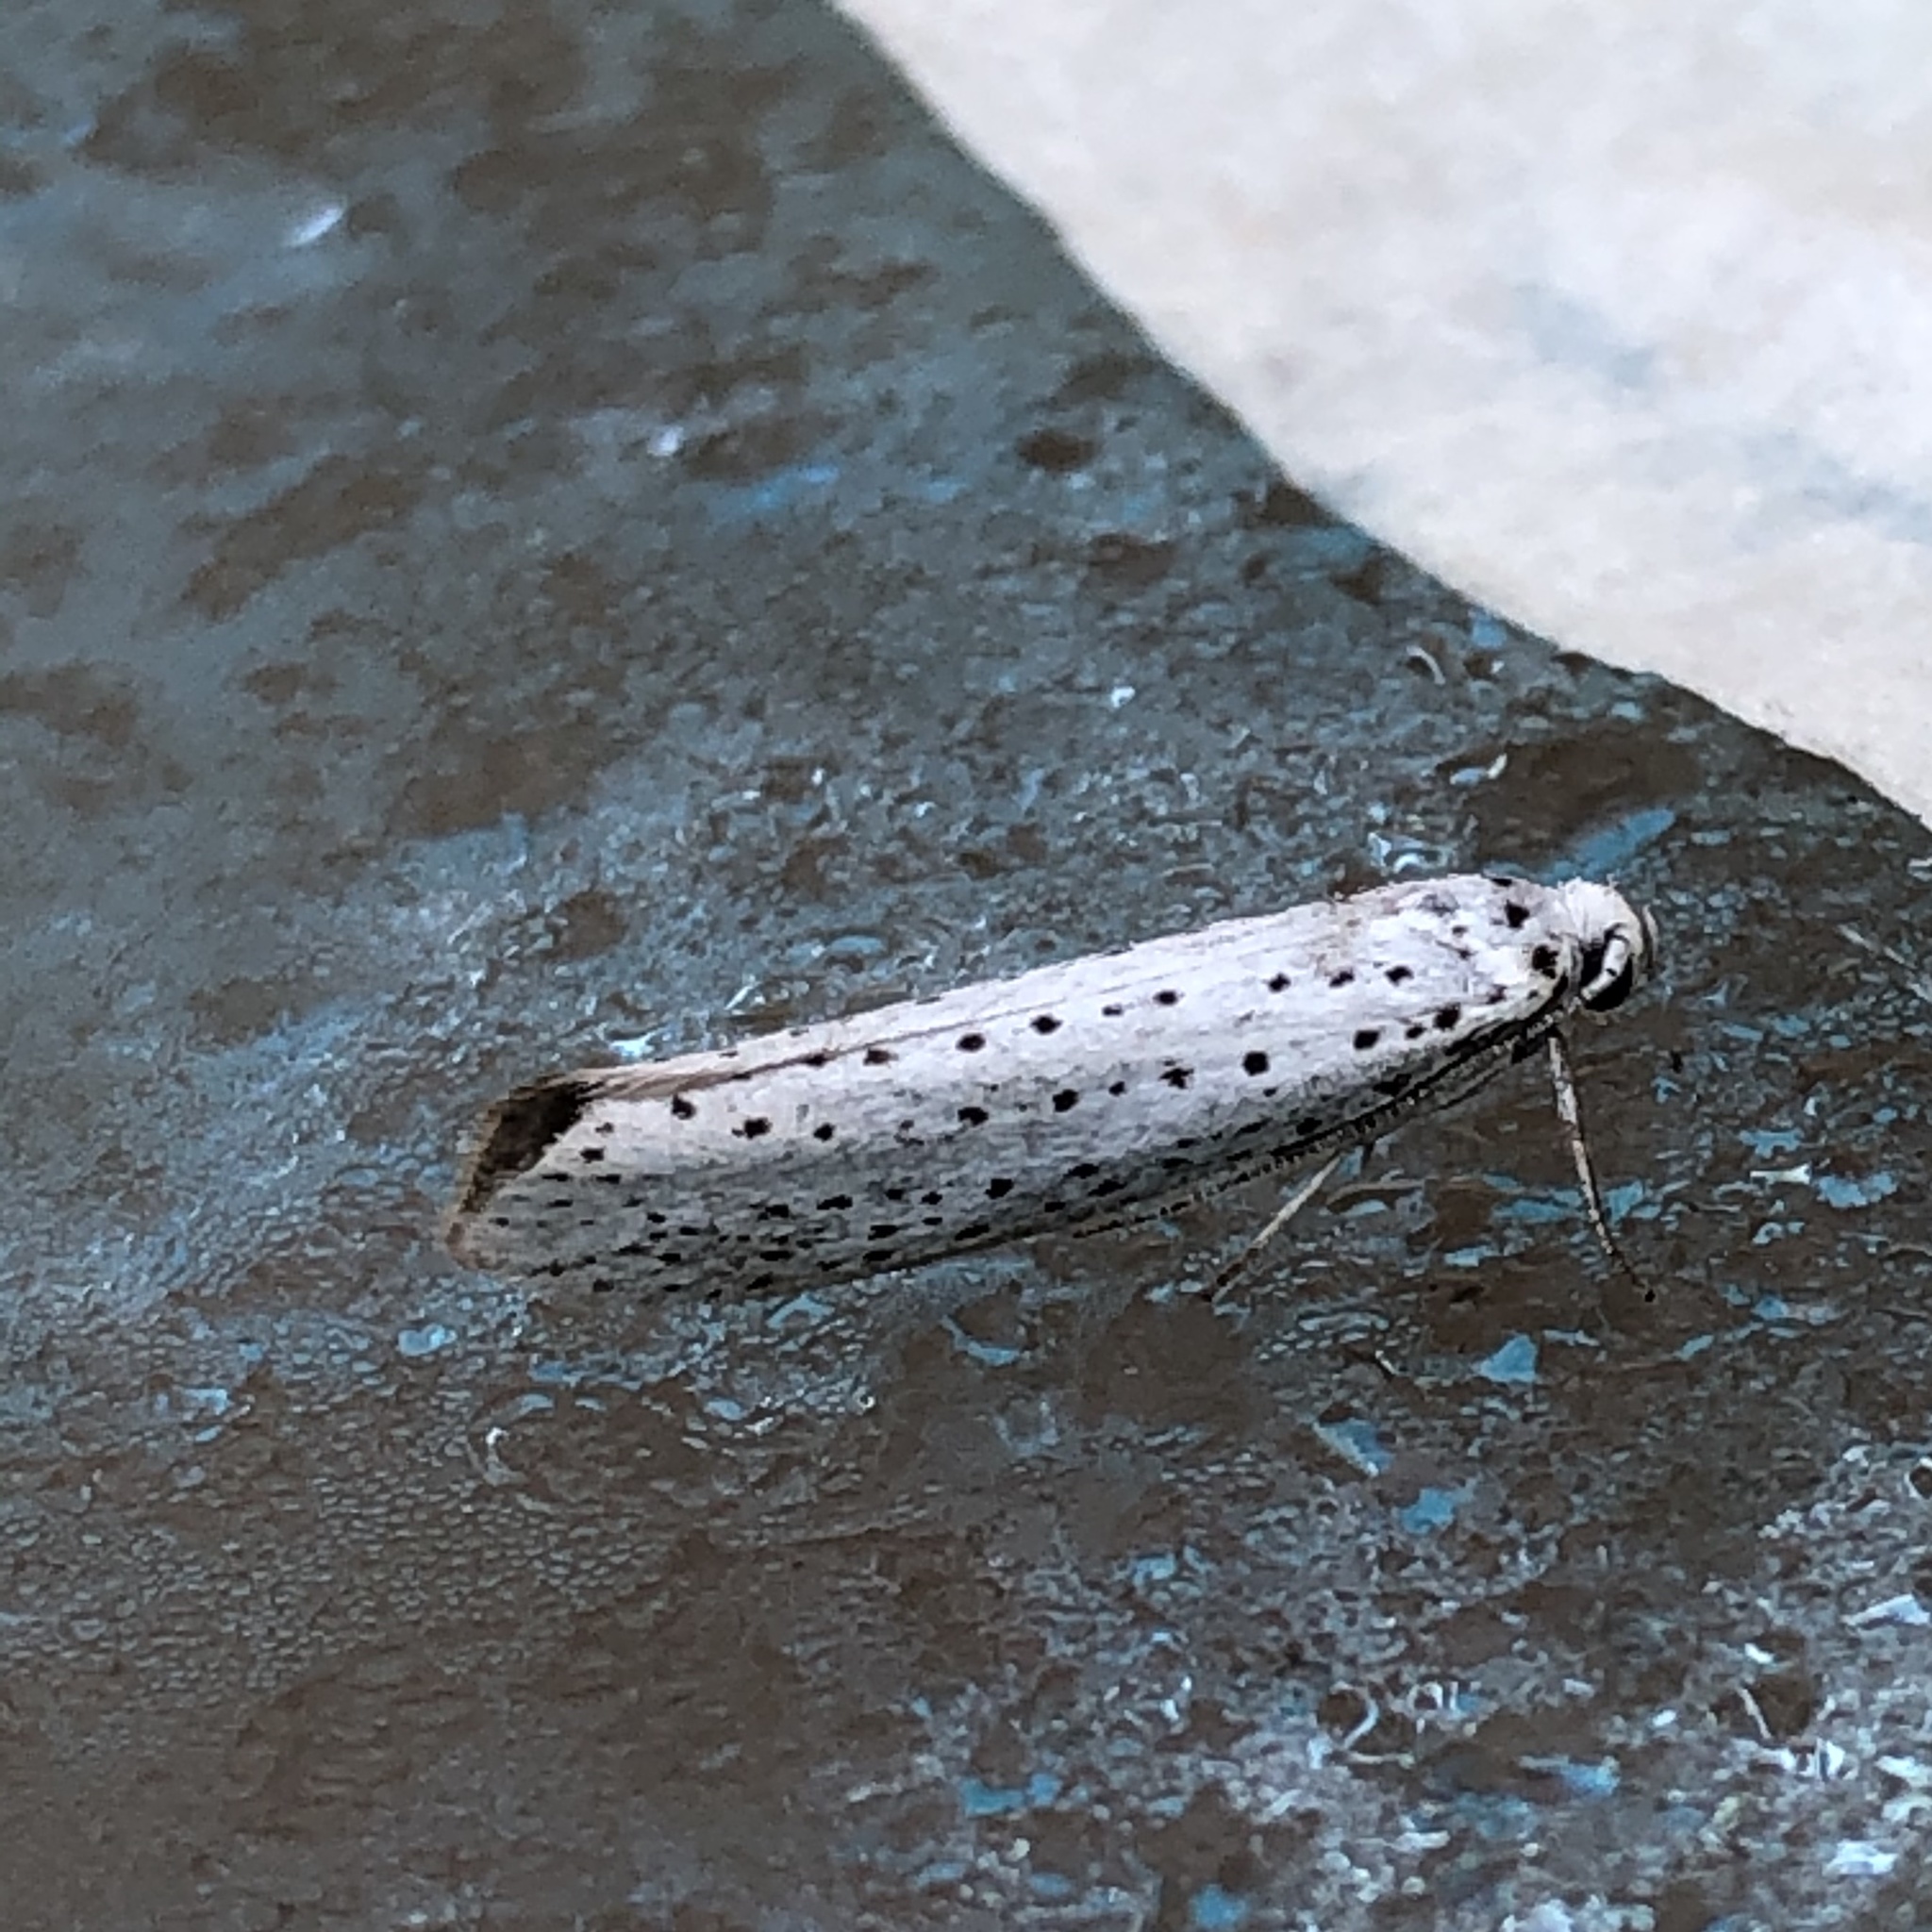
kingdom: Animalia
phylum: Arthropoda
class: Insecta
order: Lepidoptera
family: Yponomeutidae
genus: Yponomeuta
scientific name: Yponomeuta evonymella
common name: Bird-cherry ermine
